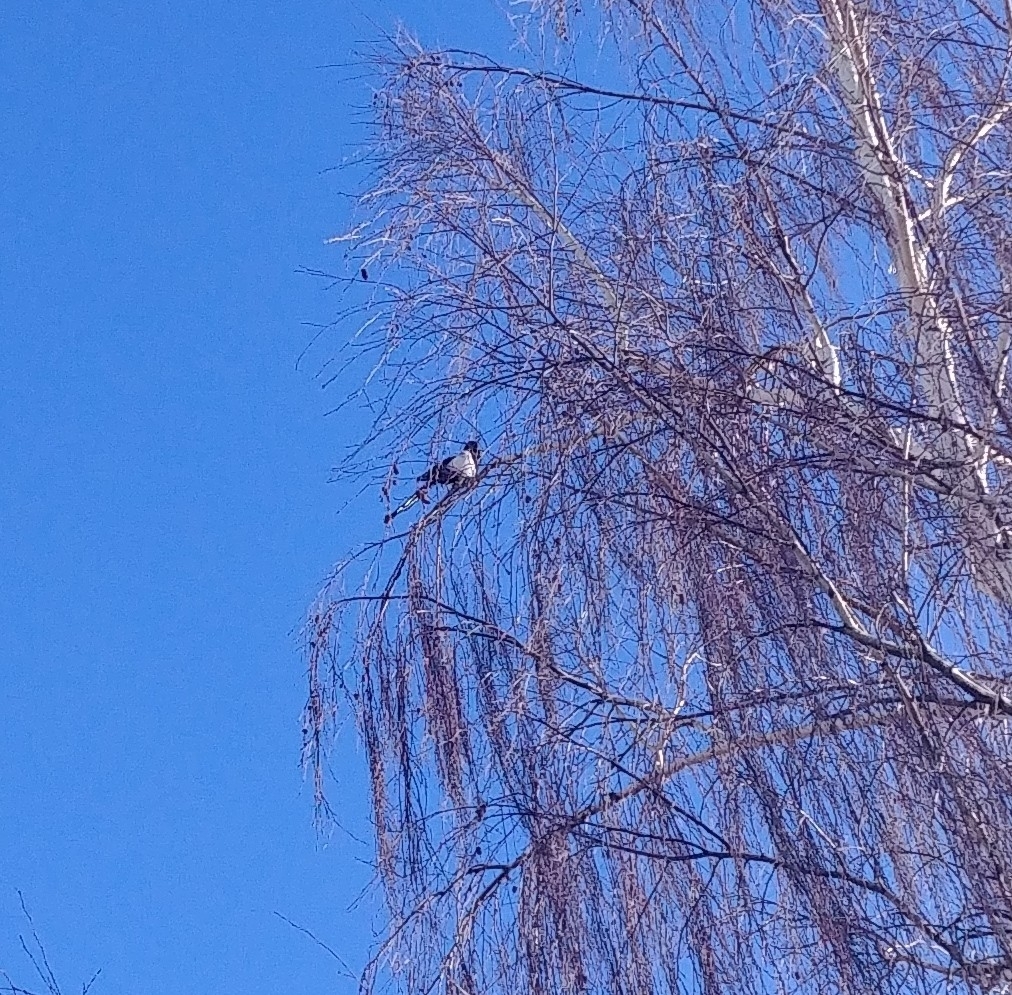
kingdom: Animalia
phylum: Chordata
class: Aves
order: Passeriformes
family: Corvidae
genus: Pica
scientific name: Pica hudsonia
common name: Black-billed magpie
